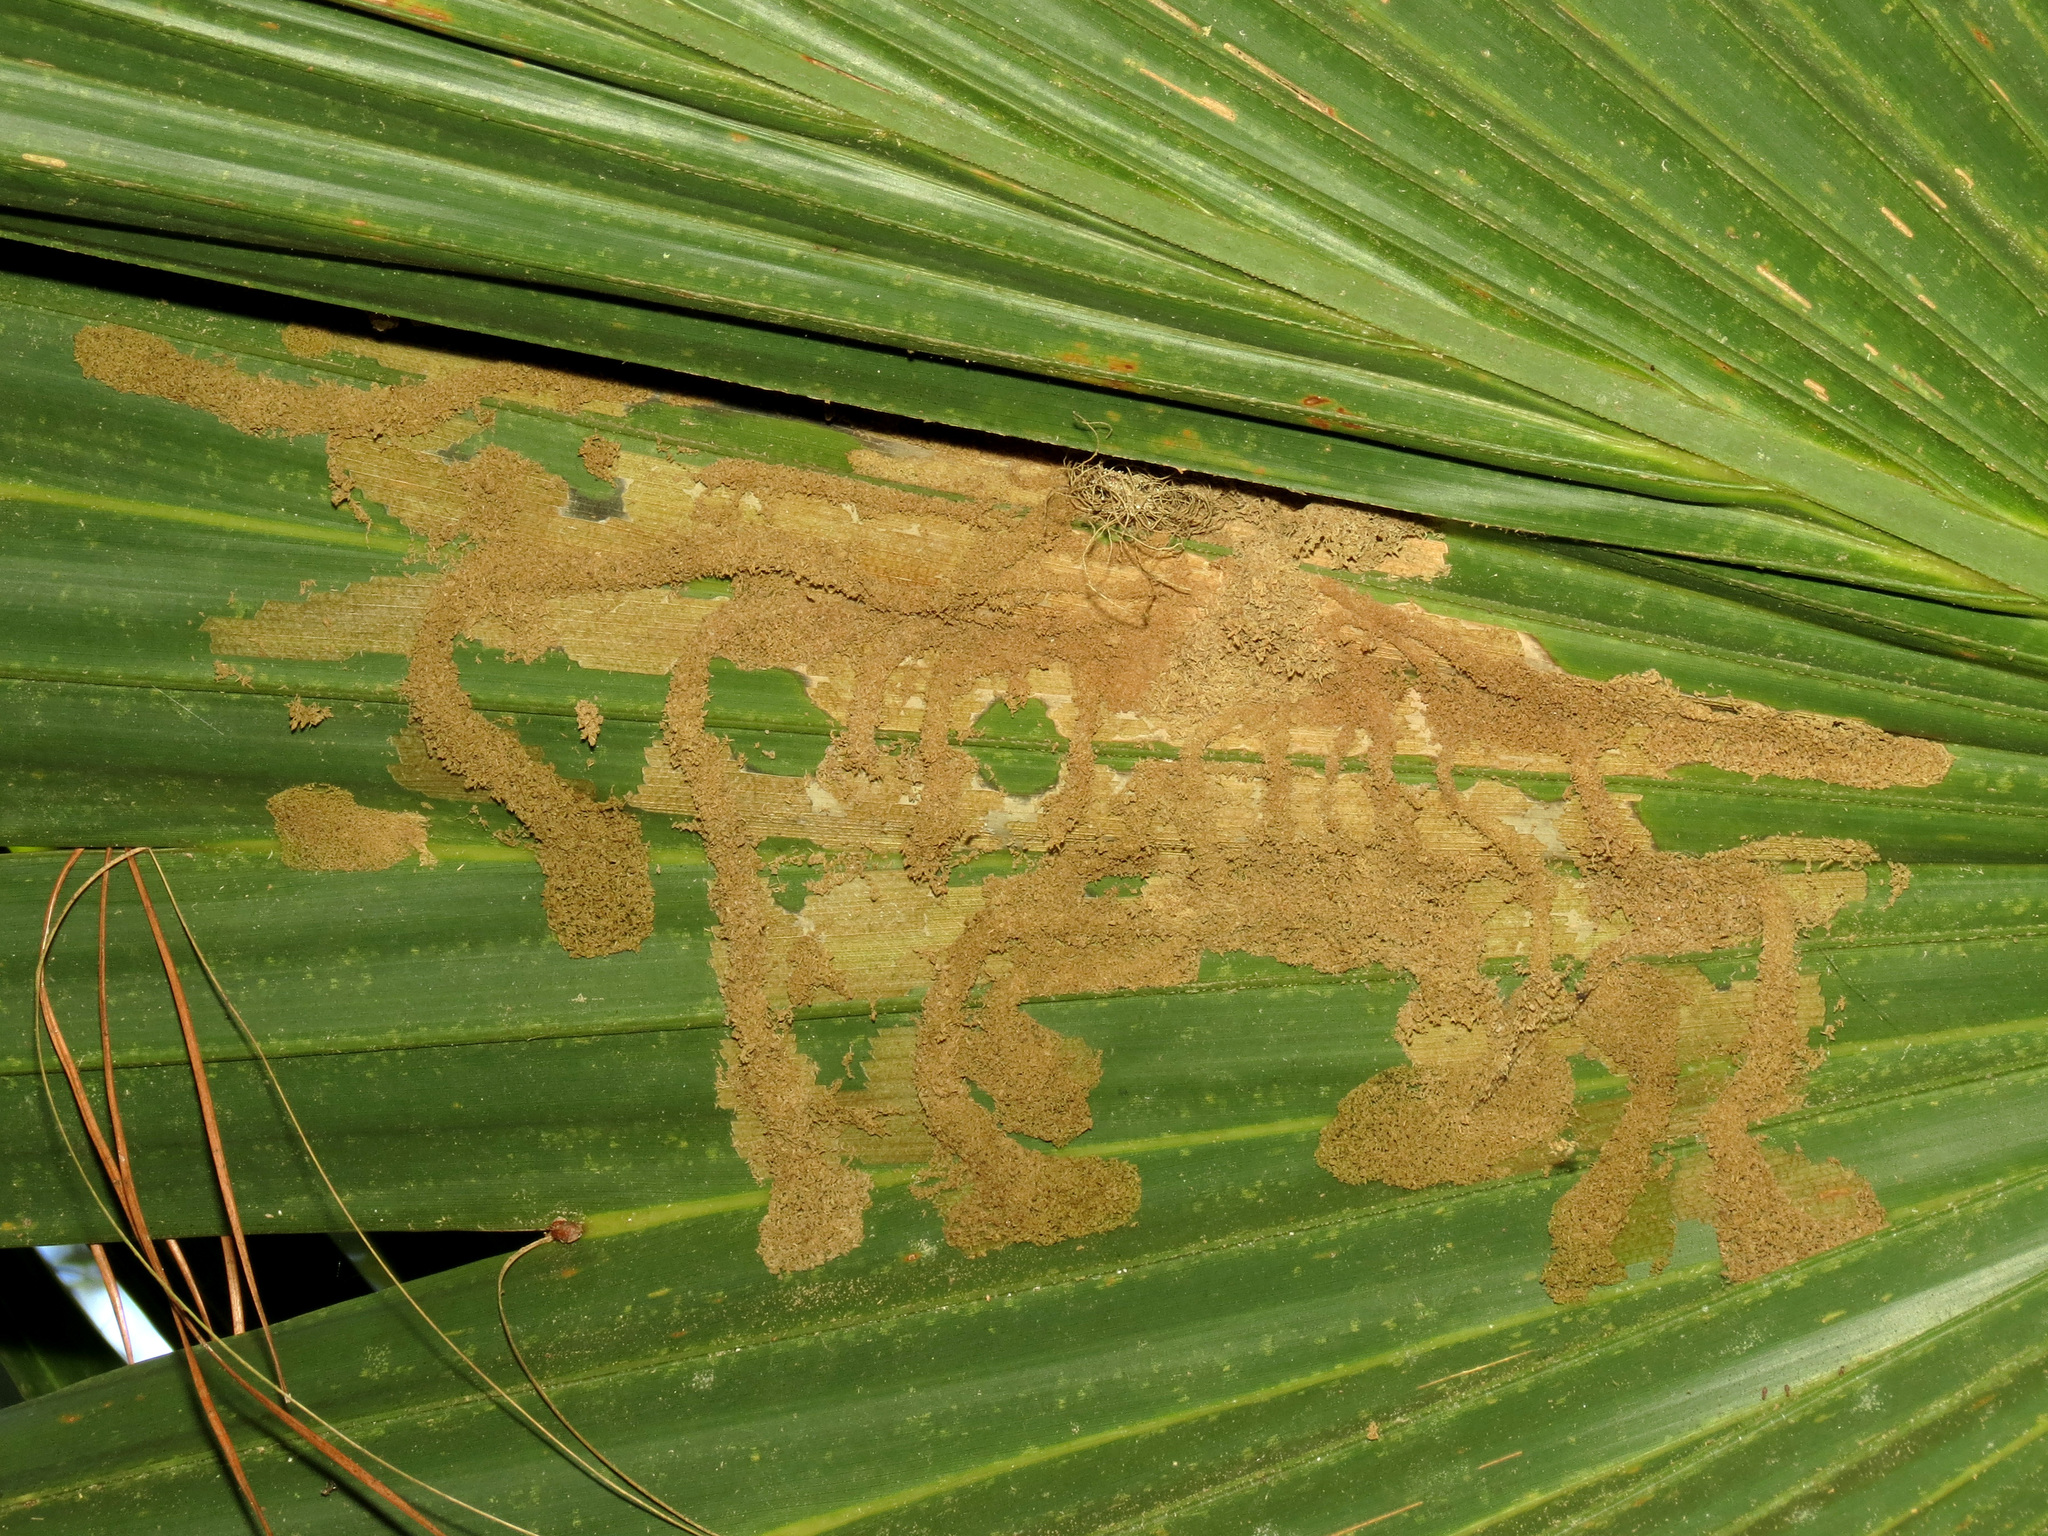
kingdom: Animalia
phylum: Arthropoda
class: Insecta
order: Lepidoptera
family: Coleophoridae
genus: Homaledra
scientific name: Homaledra sabalella
